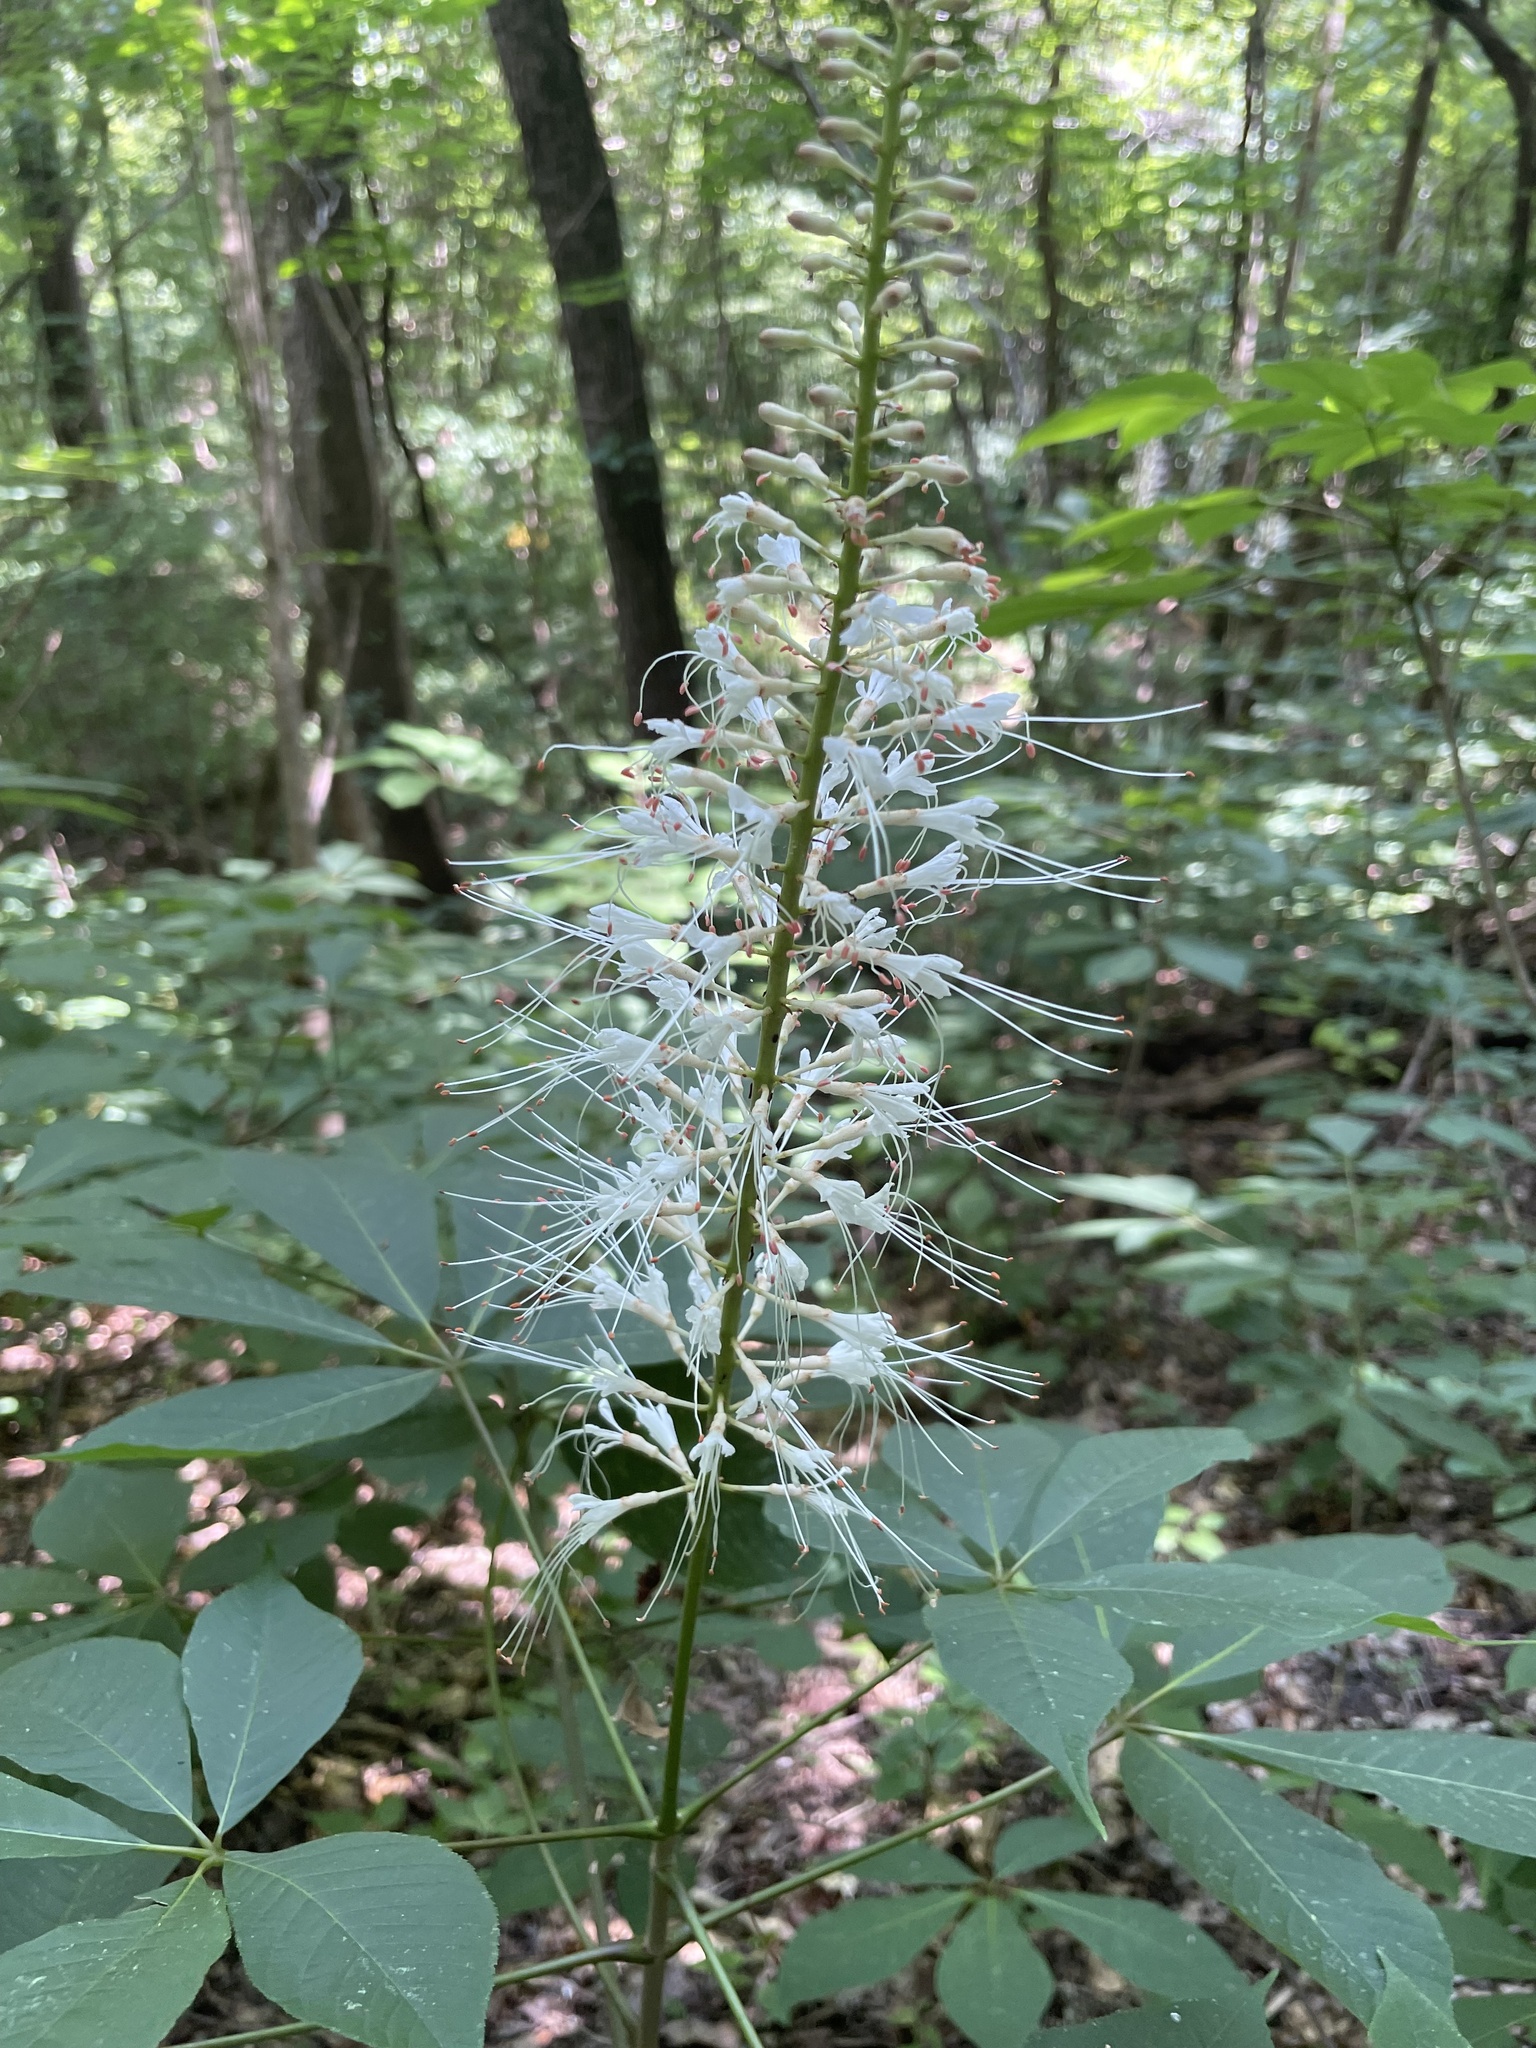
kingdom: Plantae
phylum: Tracheophyta
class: Magnoliopsida
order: Sapindales
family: Sapindaceae
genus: Aesculus
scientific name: Aesculus parviflora
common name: Bottlebrush buckeye
